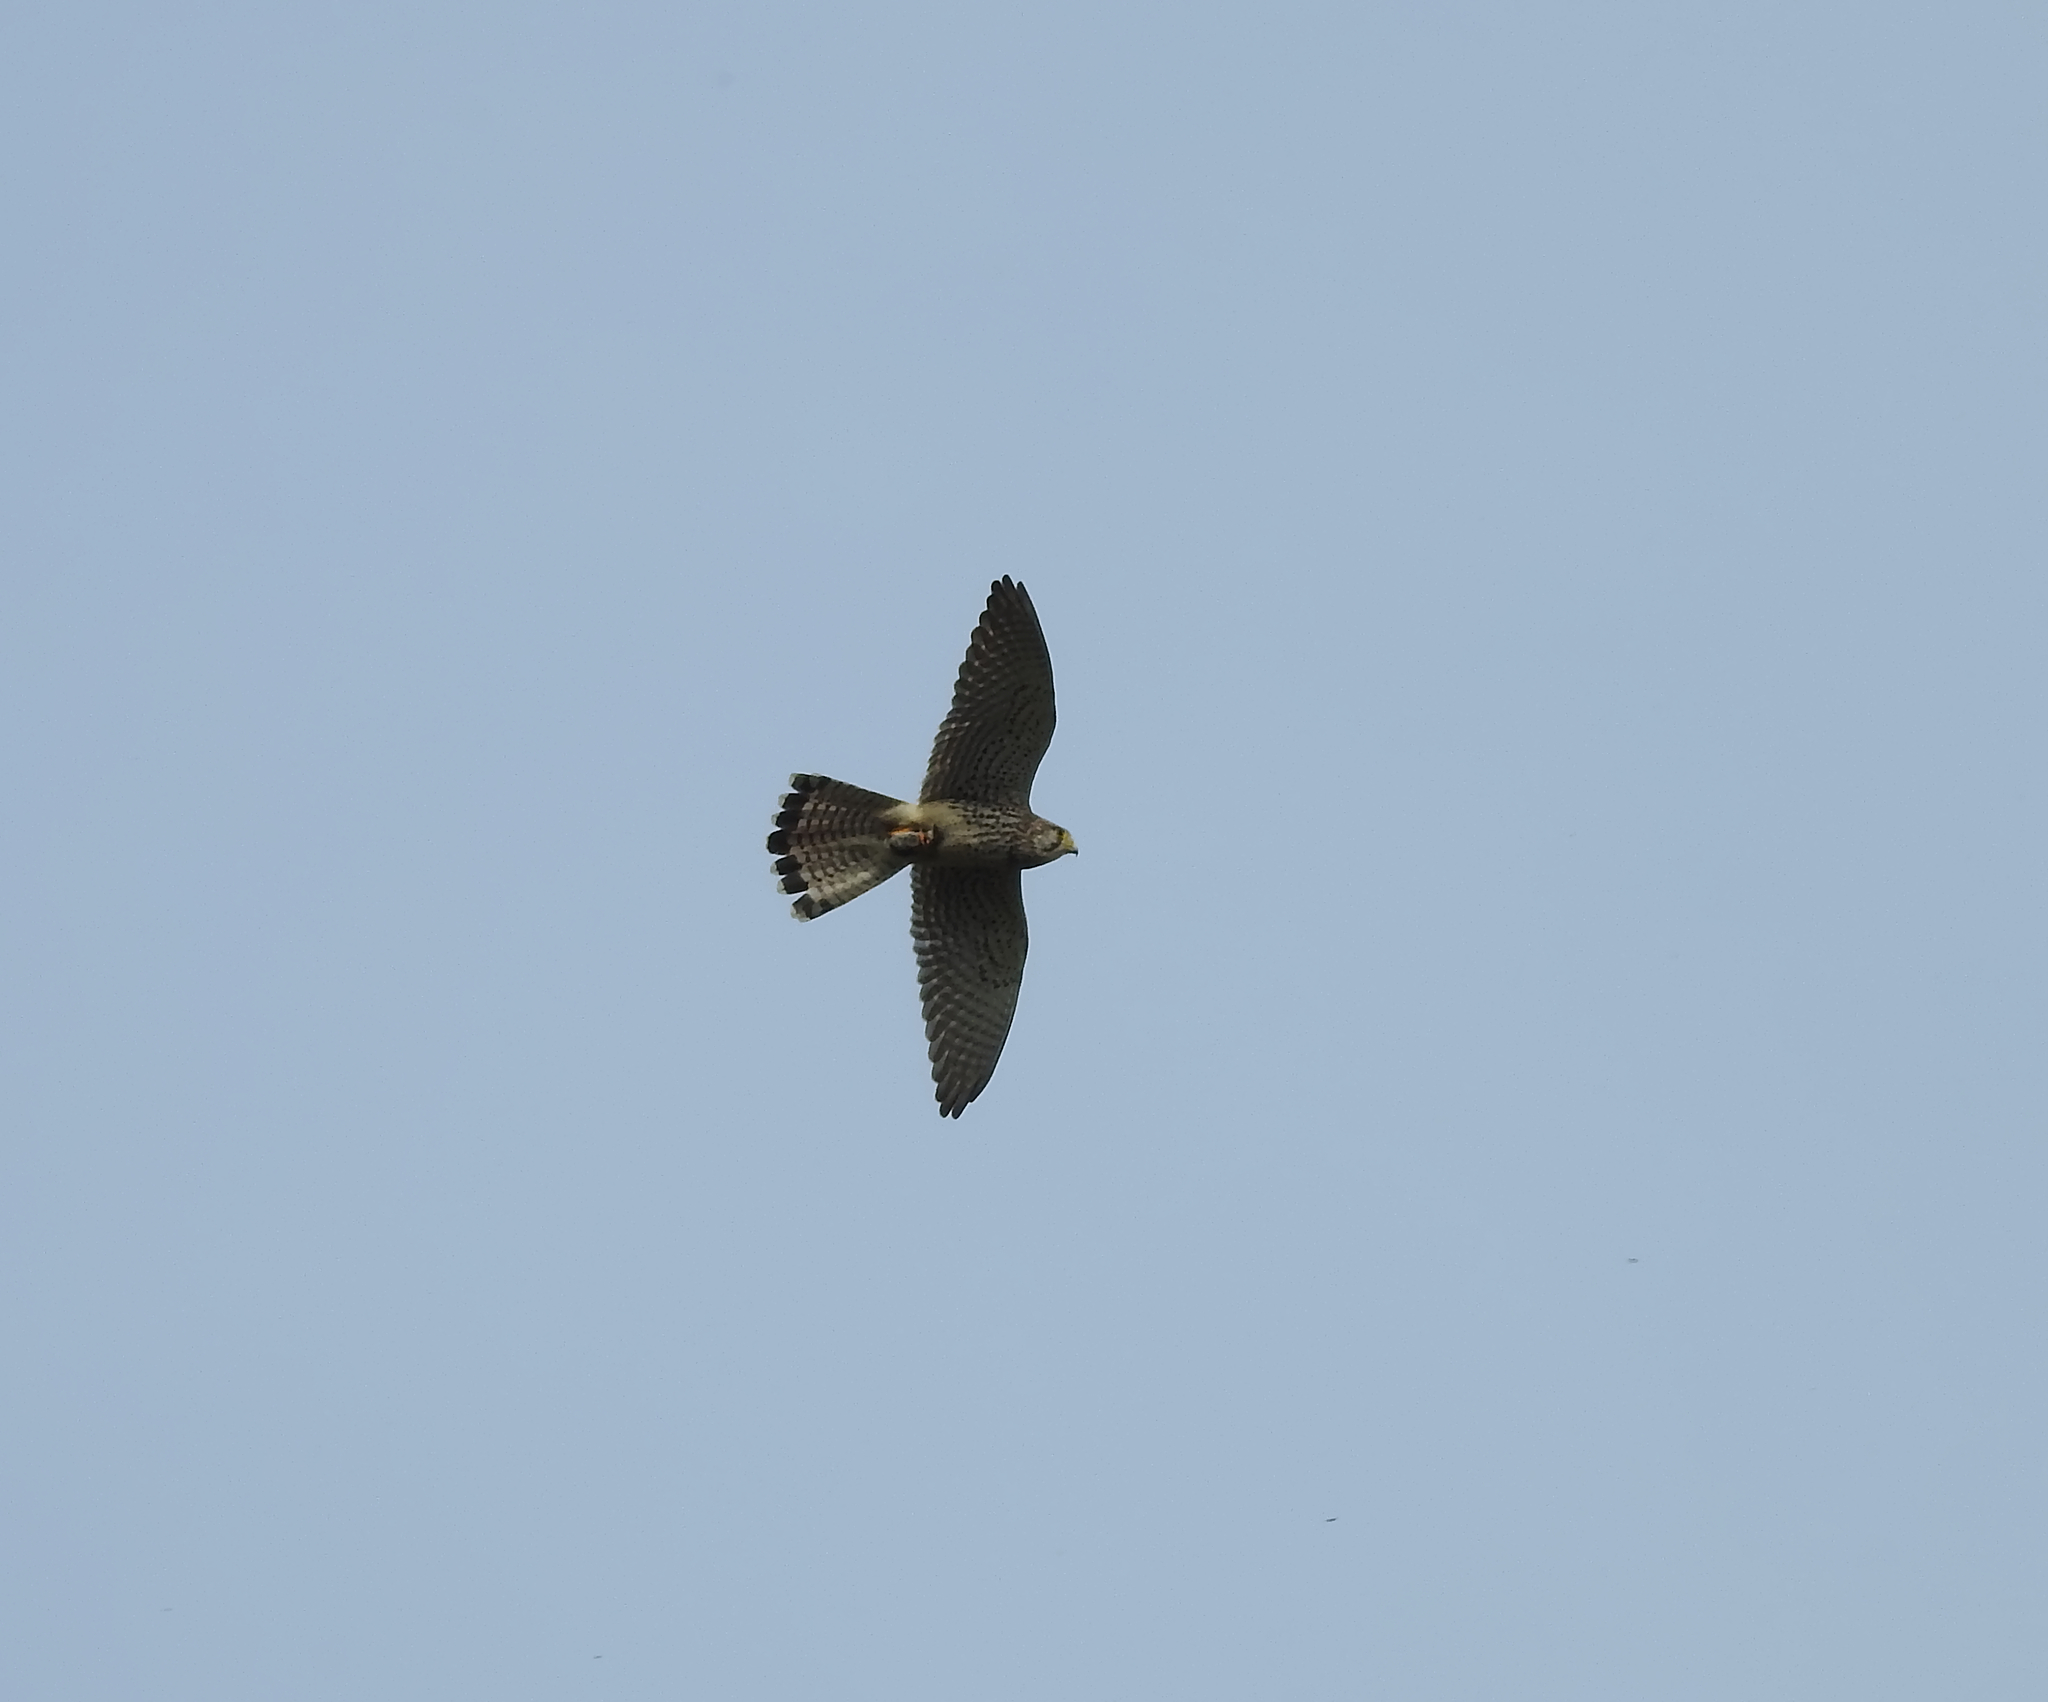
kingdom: Animalia
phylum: Chordata
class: Aves
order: Falconiformes
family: Falconidae
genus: Falco
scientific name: Falco tinnunculus
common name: Common kestrel
